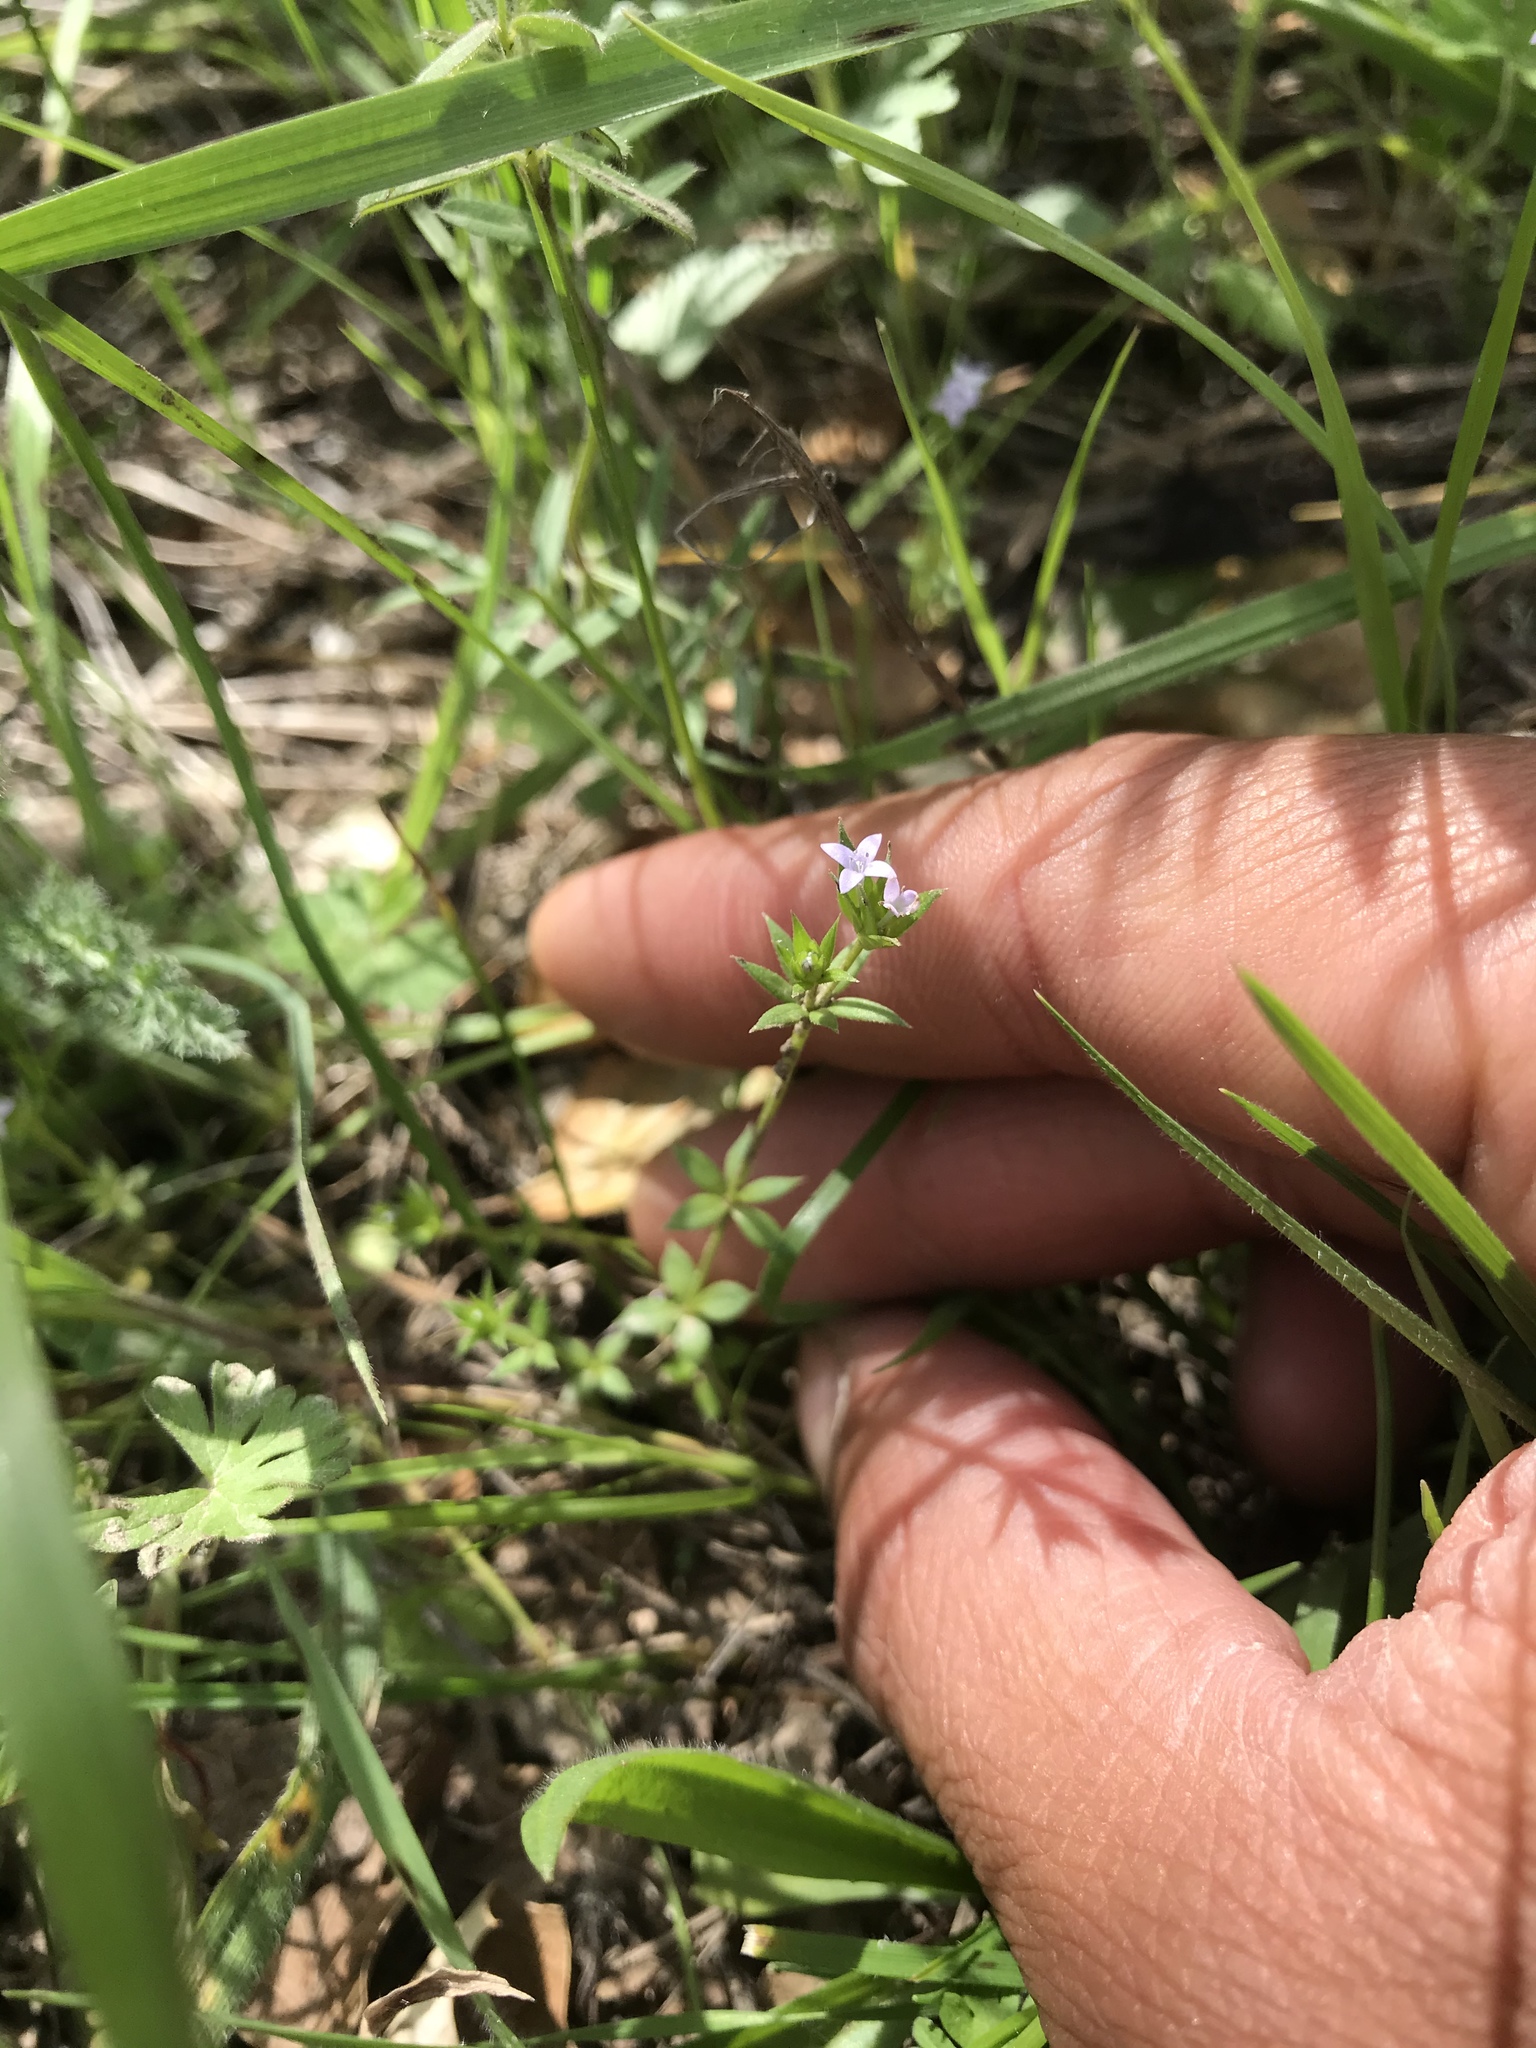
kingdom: Plantae
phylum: Tracheophyta
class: Magnoliopsida
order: Gentianales
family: Rubiaceae
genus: Sherardia
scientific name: Sherardia arvensis
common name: Field madder
